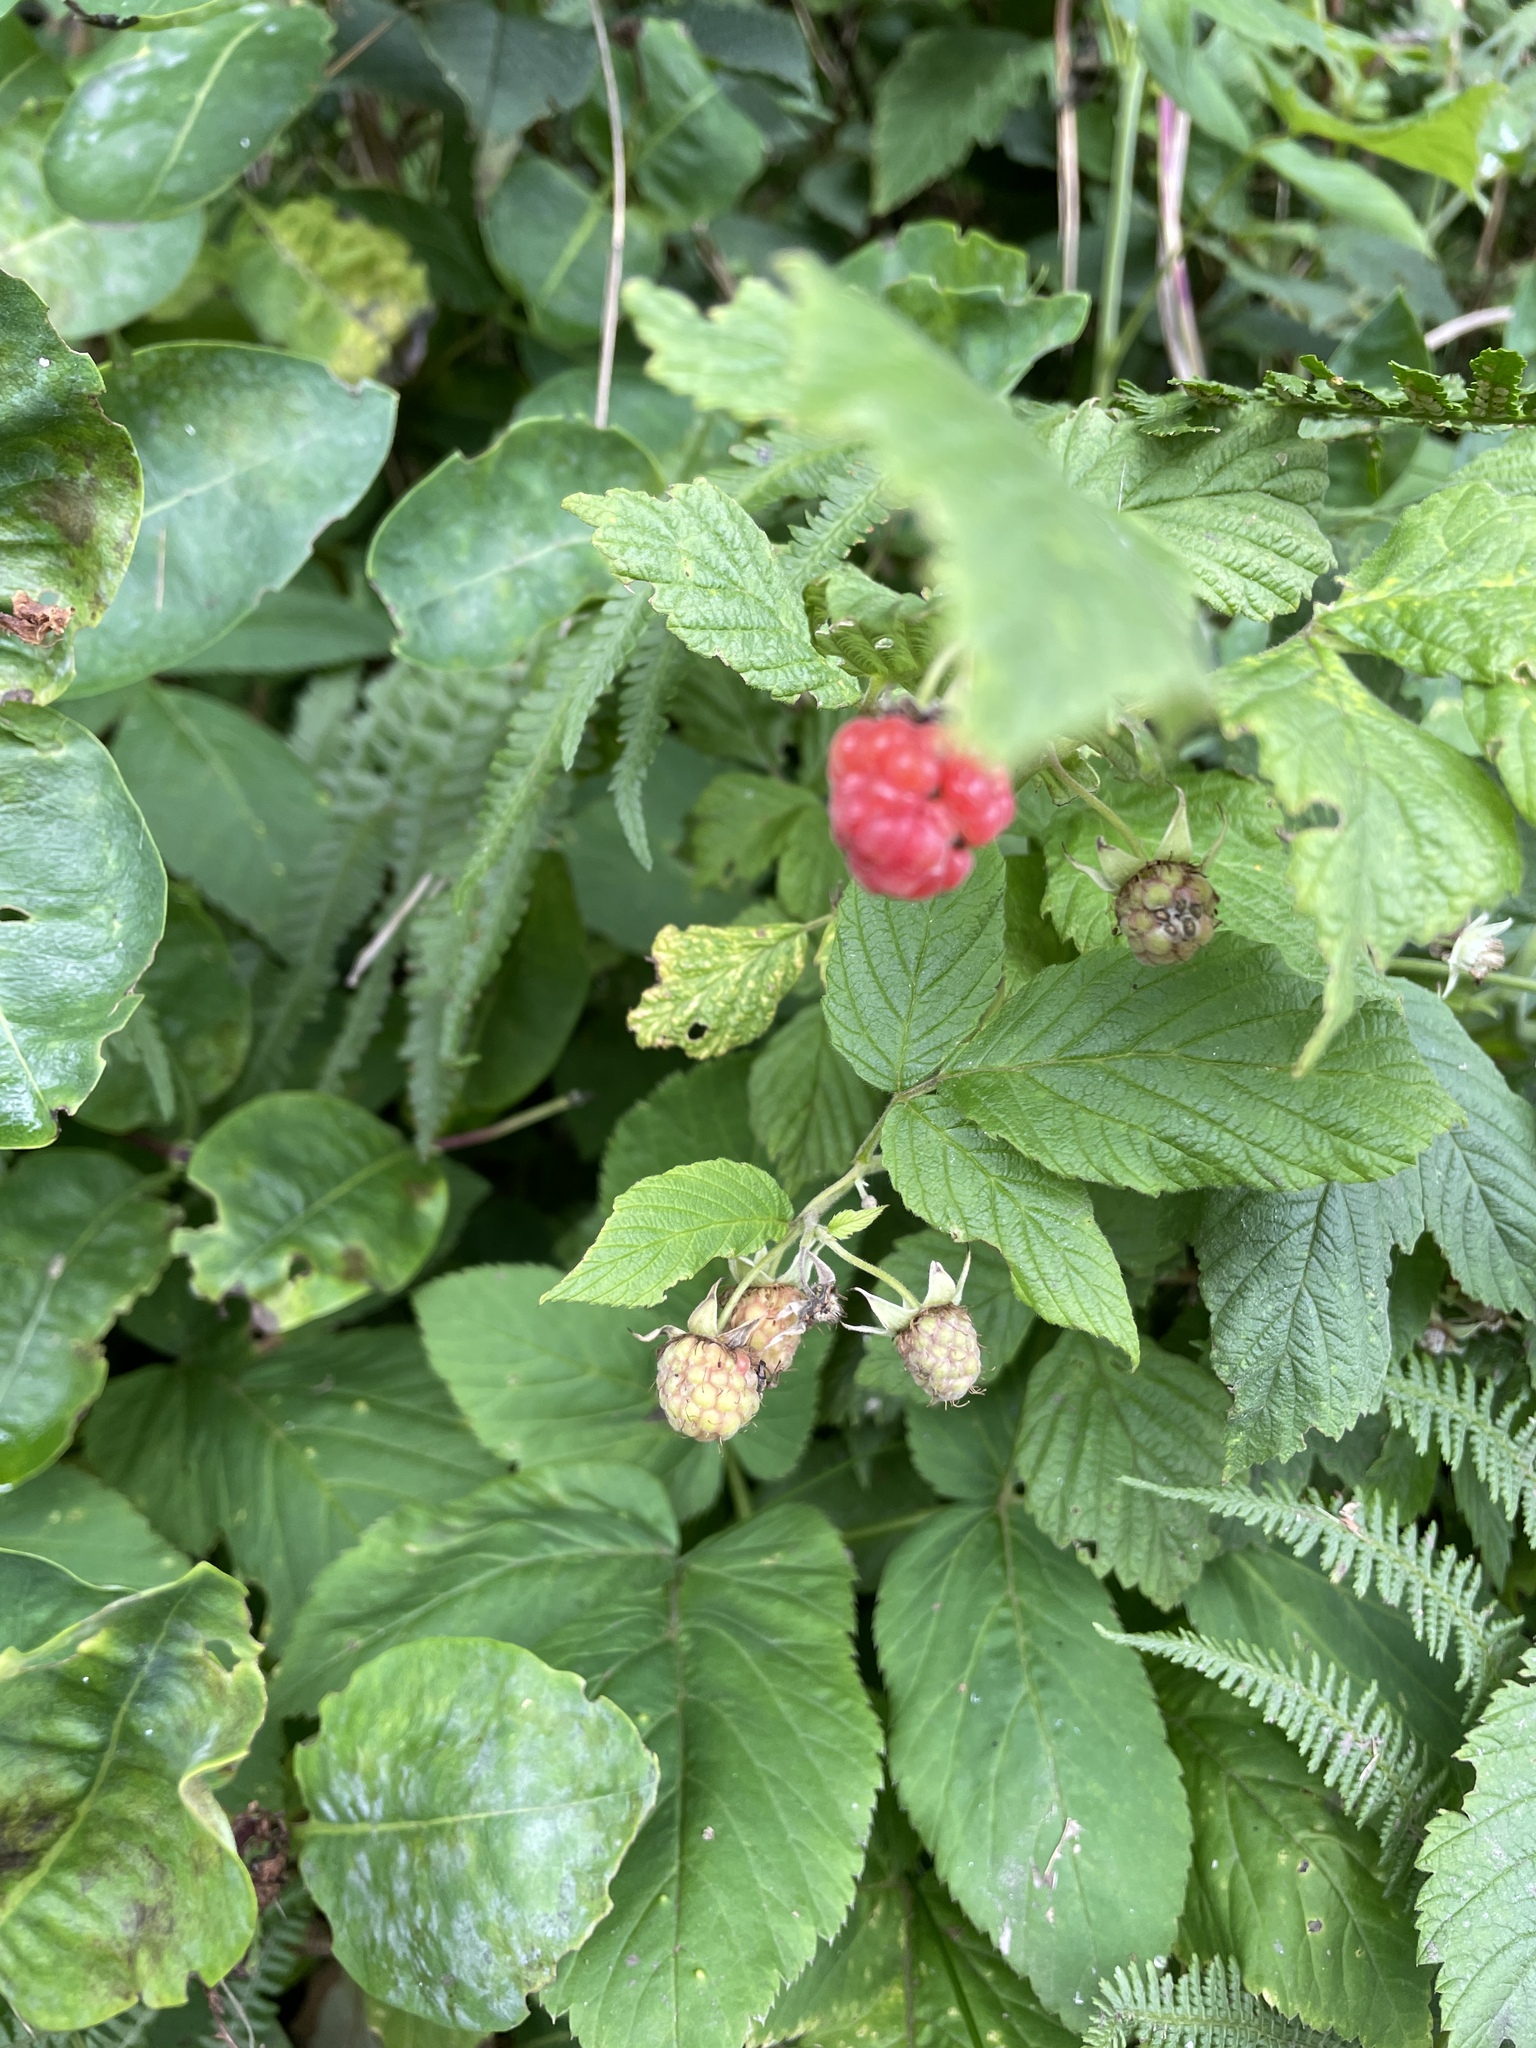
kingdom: Plantae
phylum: Tracheophyta
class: Magnoliopsida
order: Rosales
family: Rosaceae
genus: Rubus
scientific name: Rubus idaeus
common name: Raspberry
